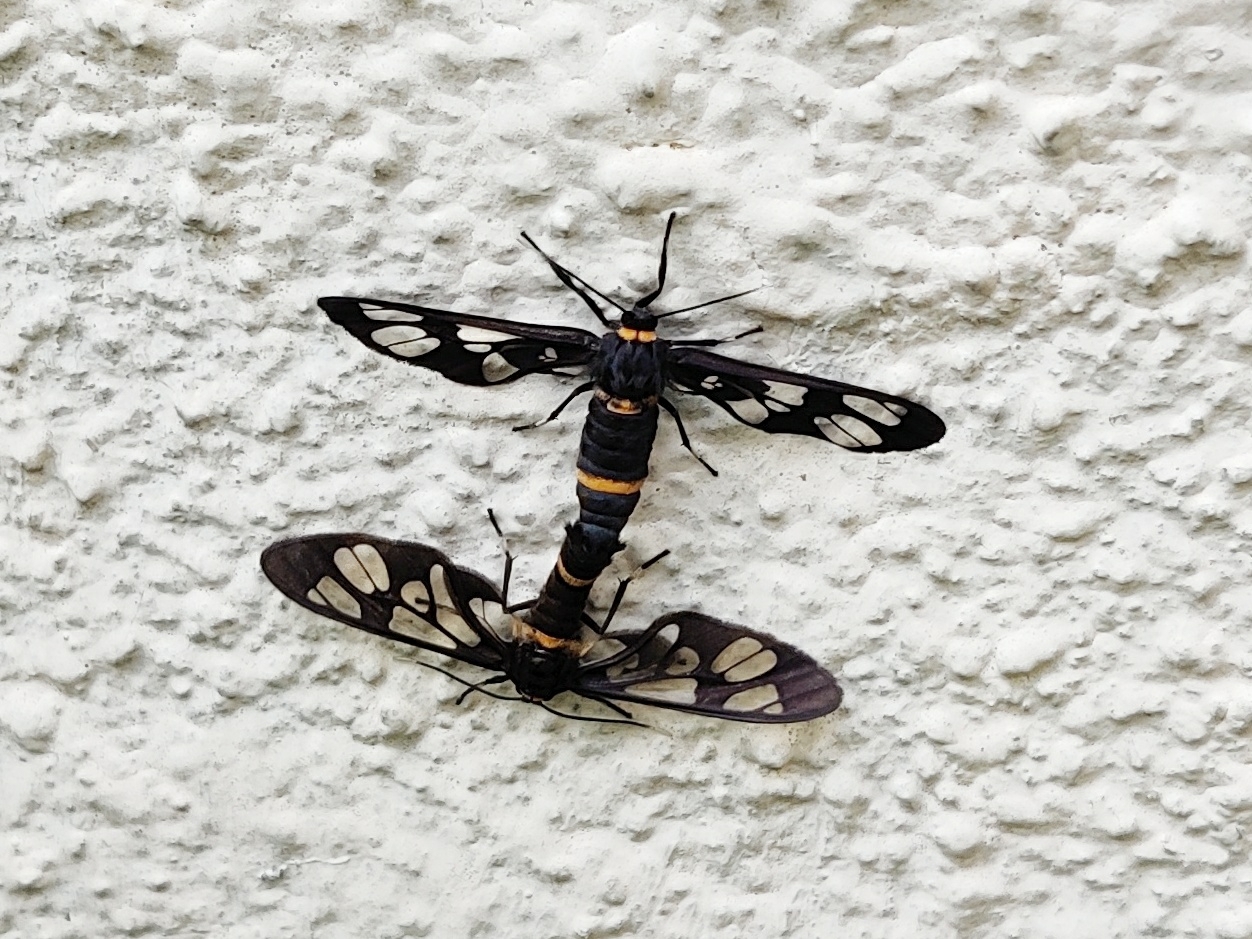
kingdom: Animalia
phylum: Arthropoda
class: Insecta
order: Lepidoptera
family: Erebidae
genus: Syntomoides
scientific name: Syntomoides imaon
